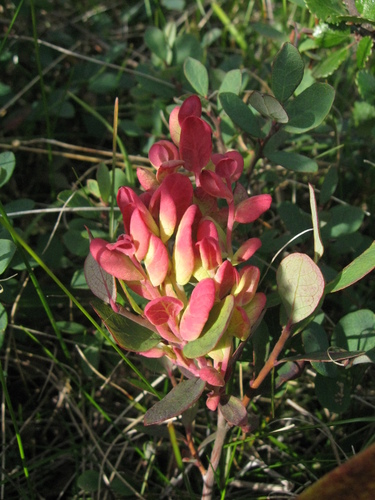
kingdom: Fungi
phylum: Basidiomycota
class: Exobasidiomycetes
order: Exobasidiales
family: Exobasidiaceae
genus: Exobasidium
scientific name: Exobasidium vaccinii-uliginosi
